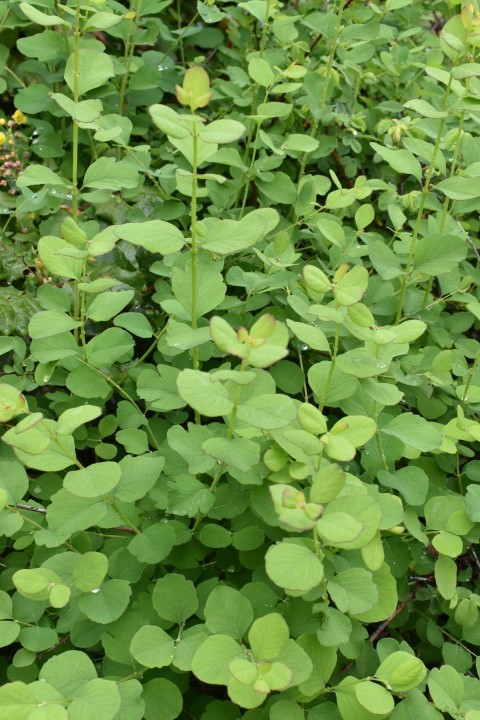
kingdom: Plantae
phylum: Tracheophyta
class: Magnoliopsida
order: Dipsacales
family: Caprifoliaceae
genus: Symphoricarpos
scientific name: Symphoricarpos albus
